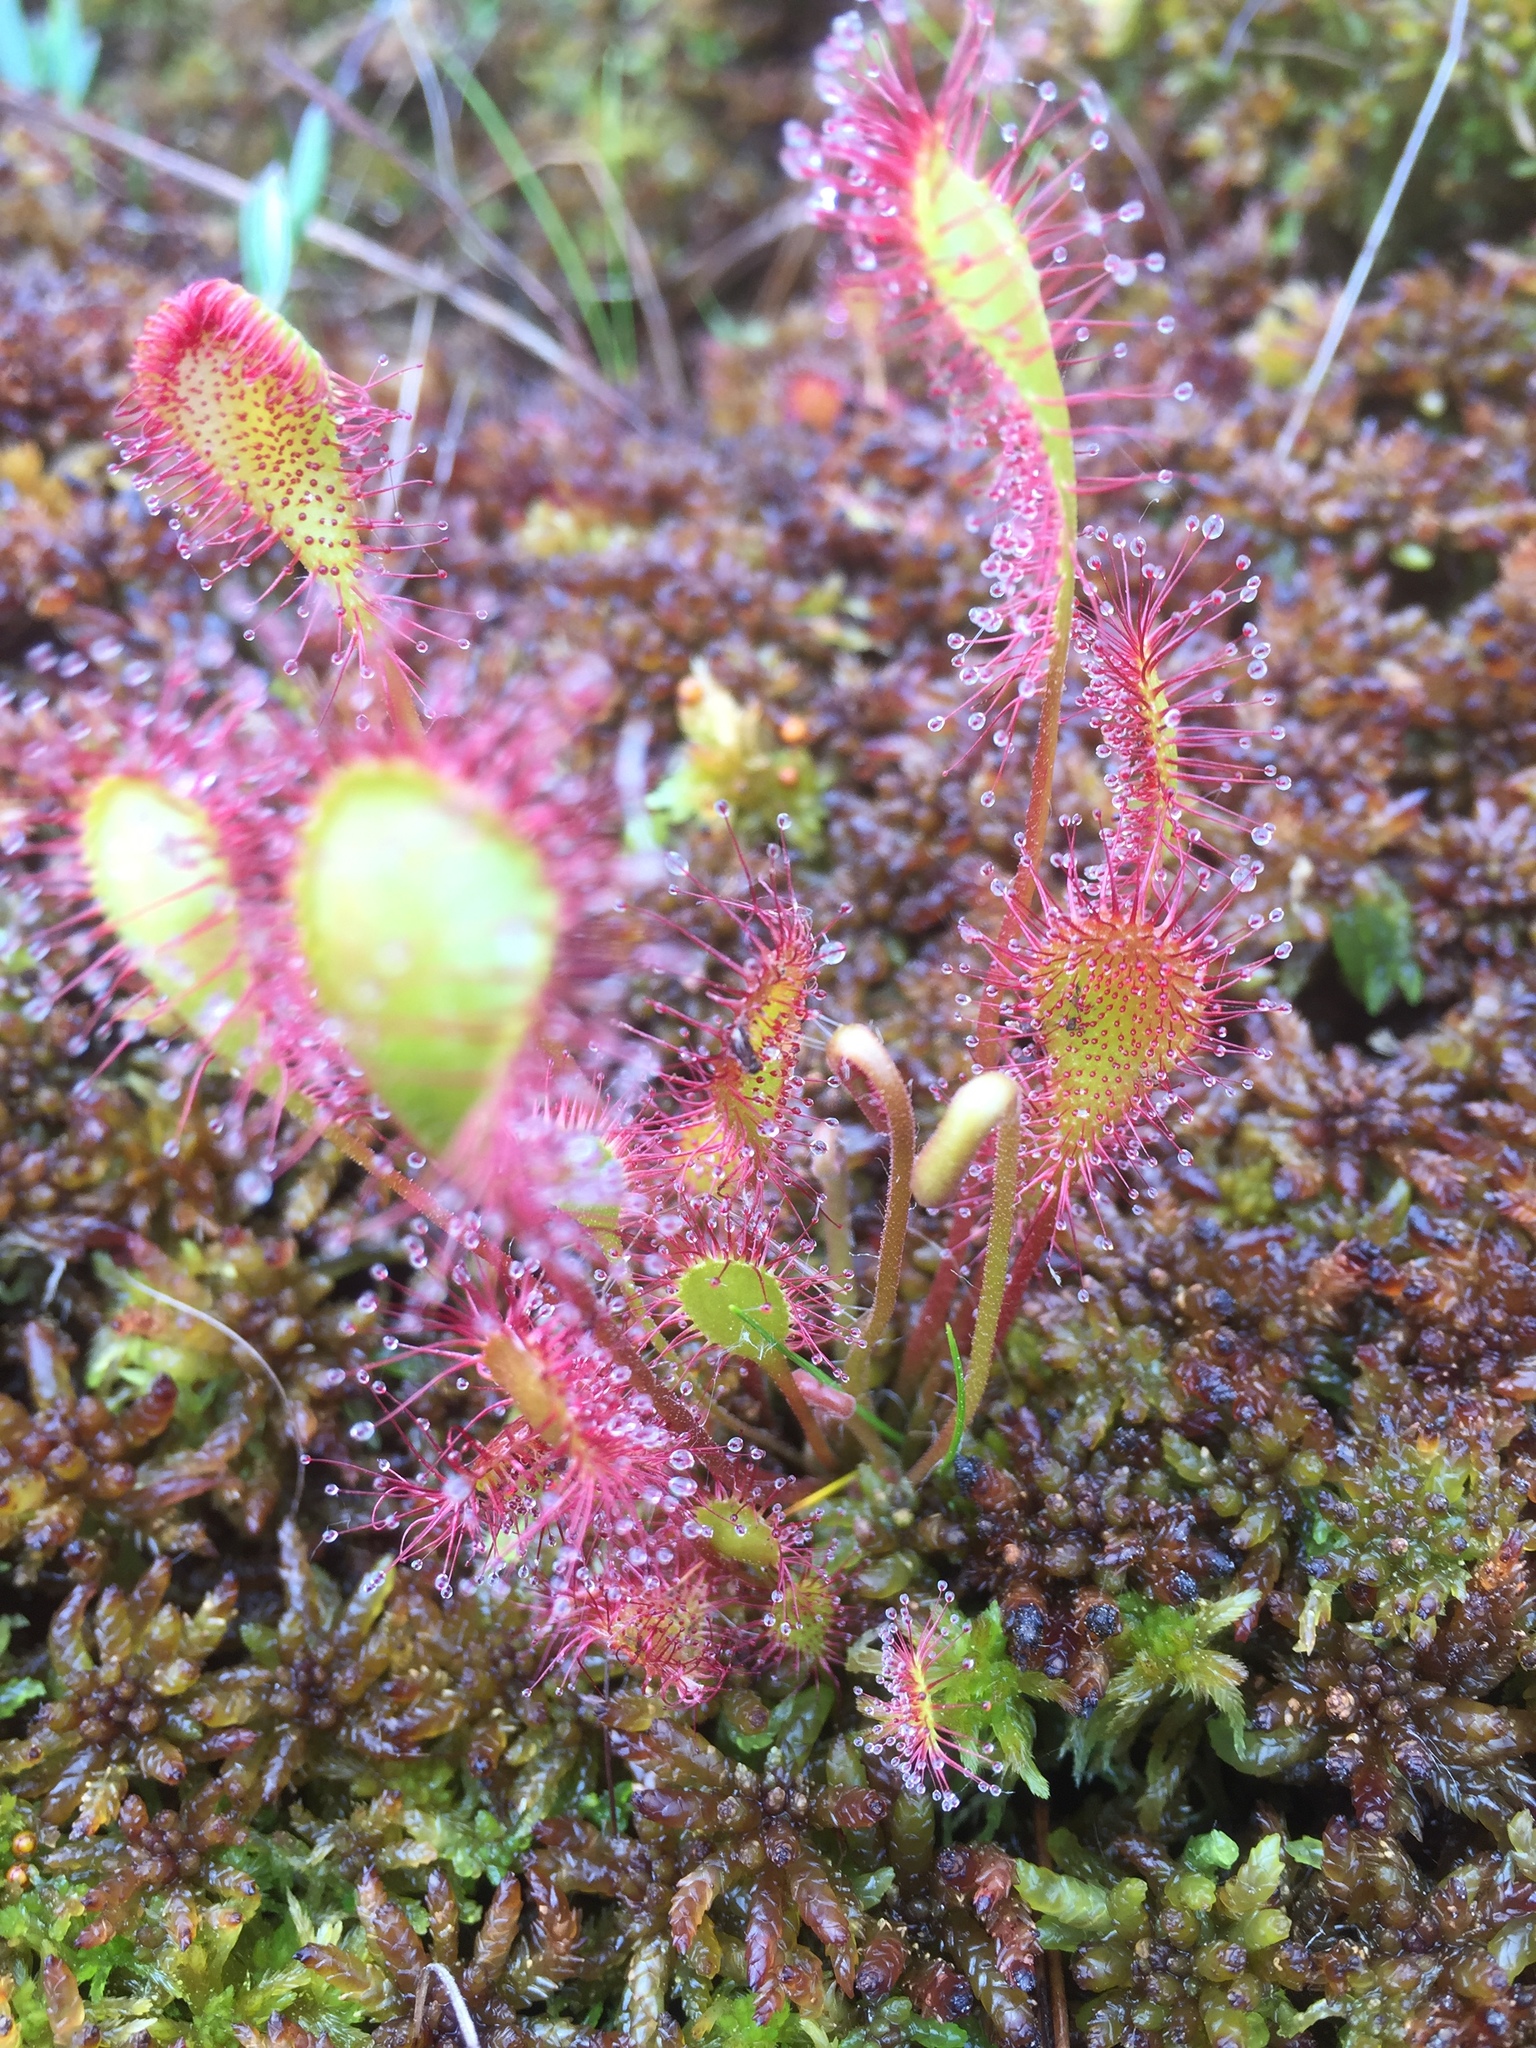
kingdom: Plantae
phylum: Tracheophyta
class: Magnoliopsida
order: Caryophyllales
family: Droseraceae
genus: Drosera
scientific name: Drosera obovata
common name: Ivan's paddle
